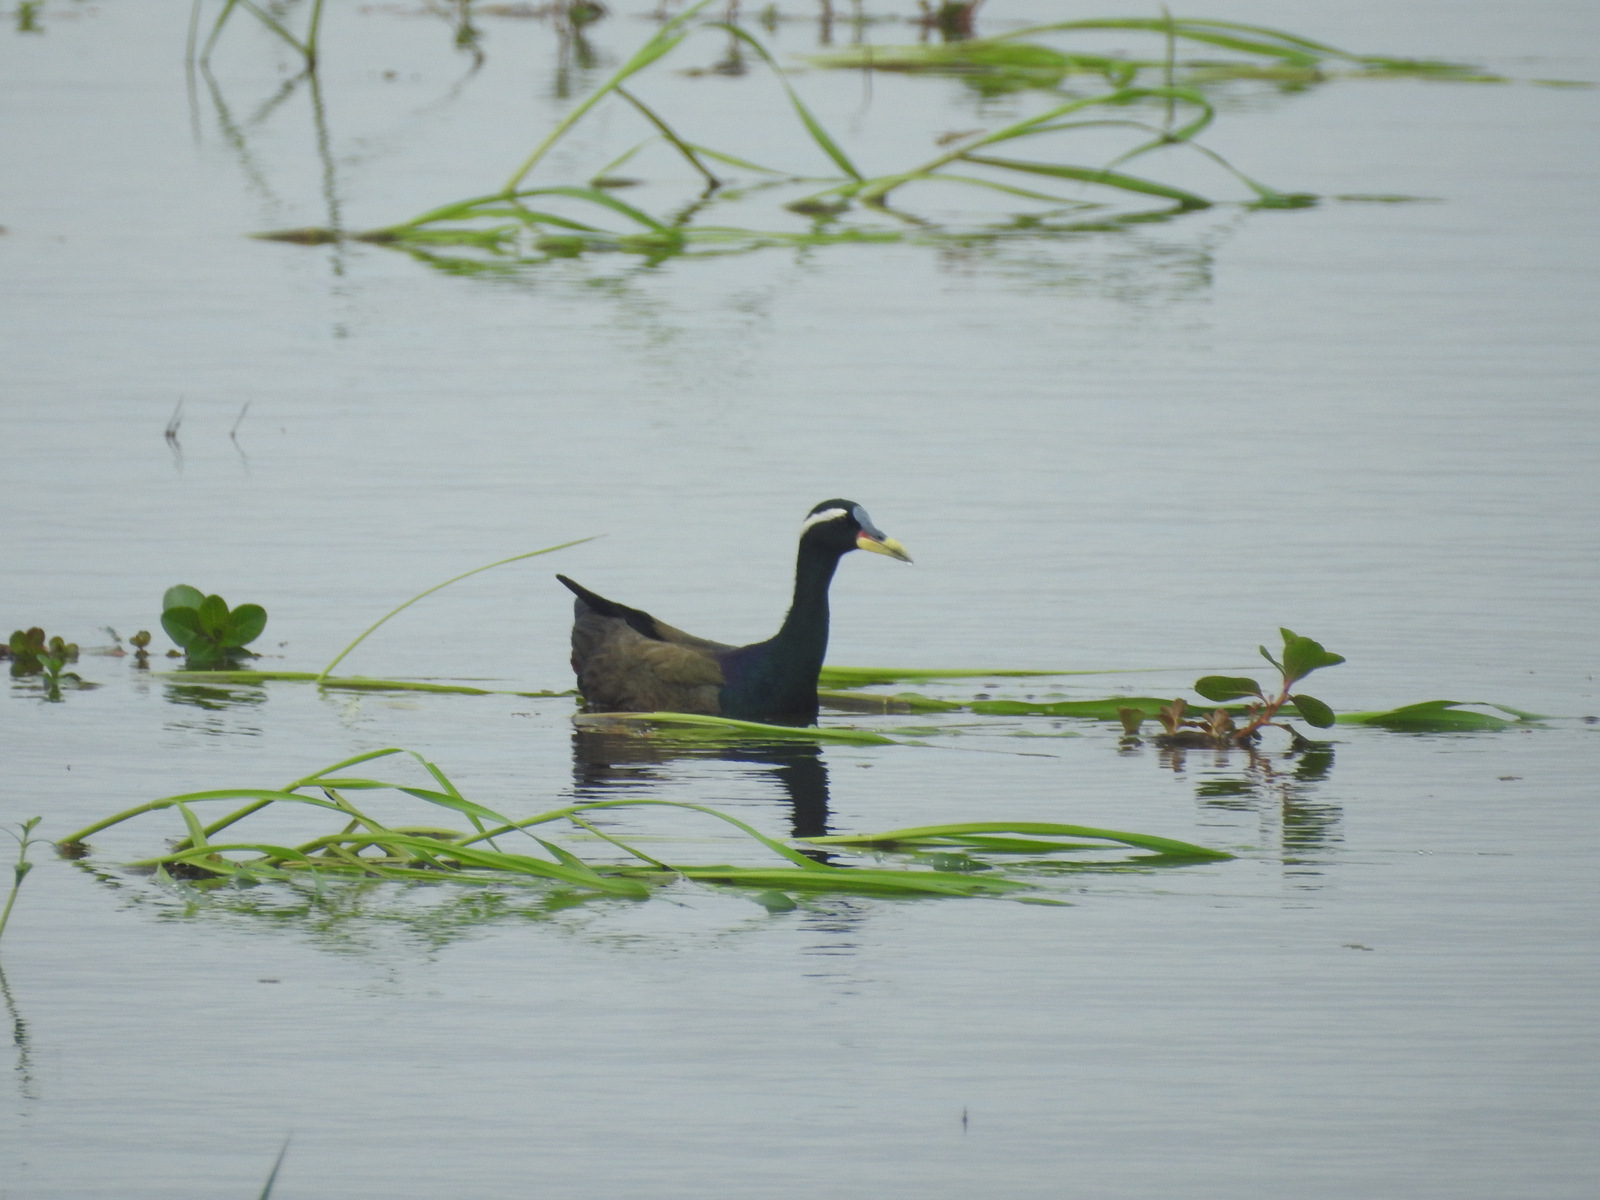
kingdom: Animalia
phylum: Chordata
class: Aves
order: Charadriiformes
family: Jacanidae
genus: Metopidius
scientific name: Metopidius indicus
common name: Bronze-winged jacana
